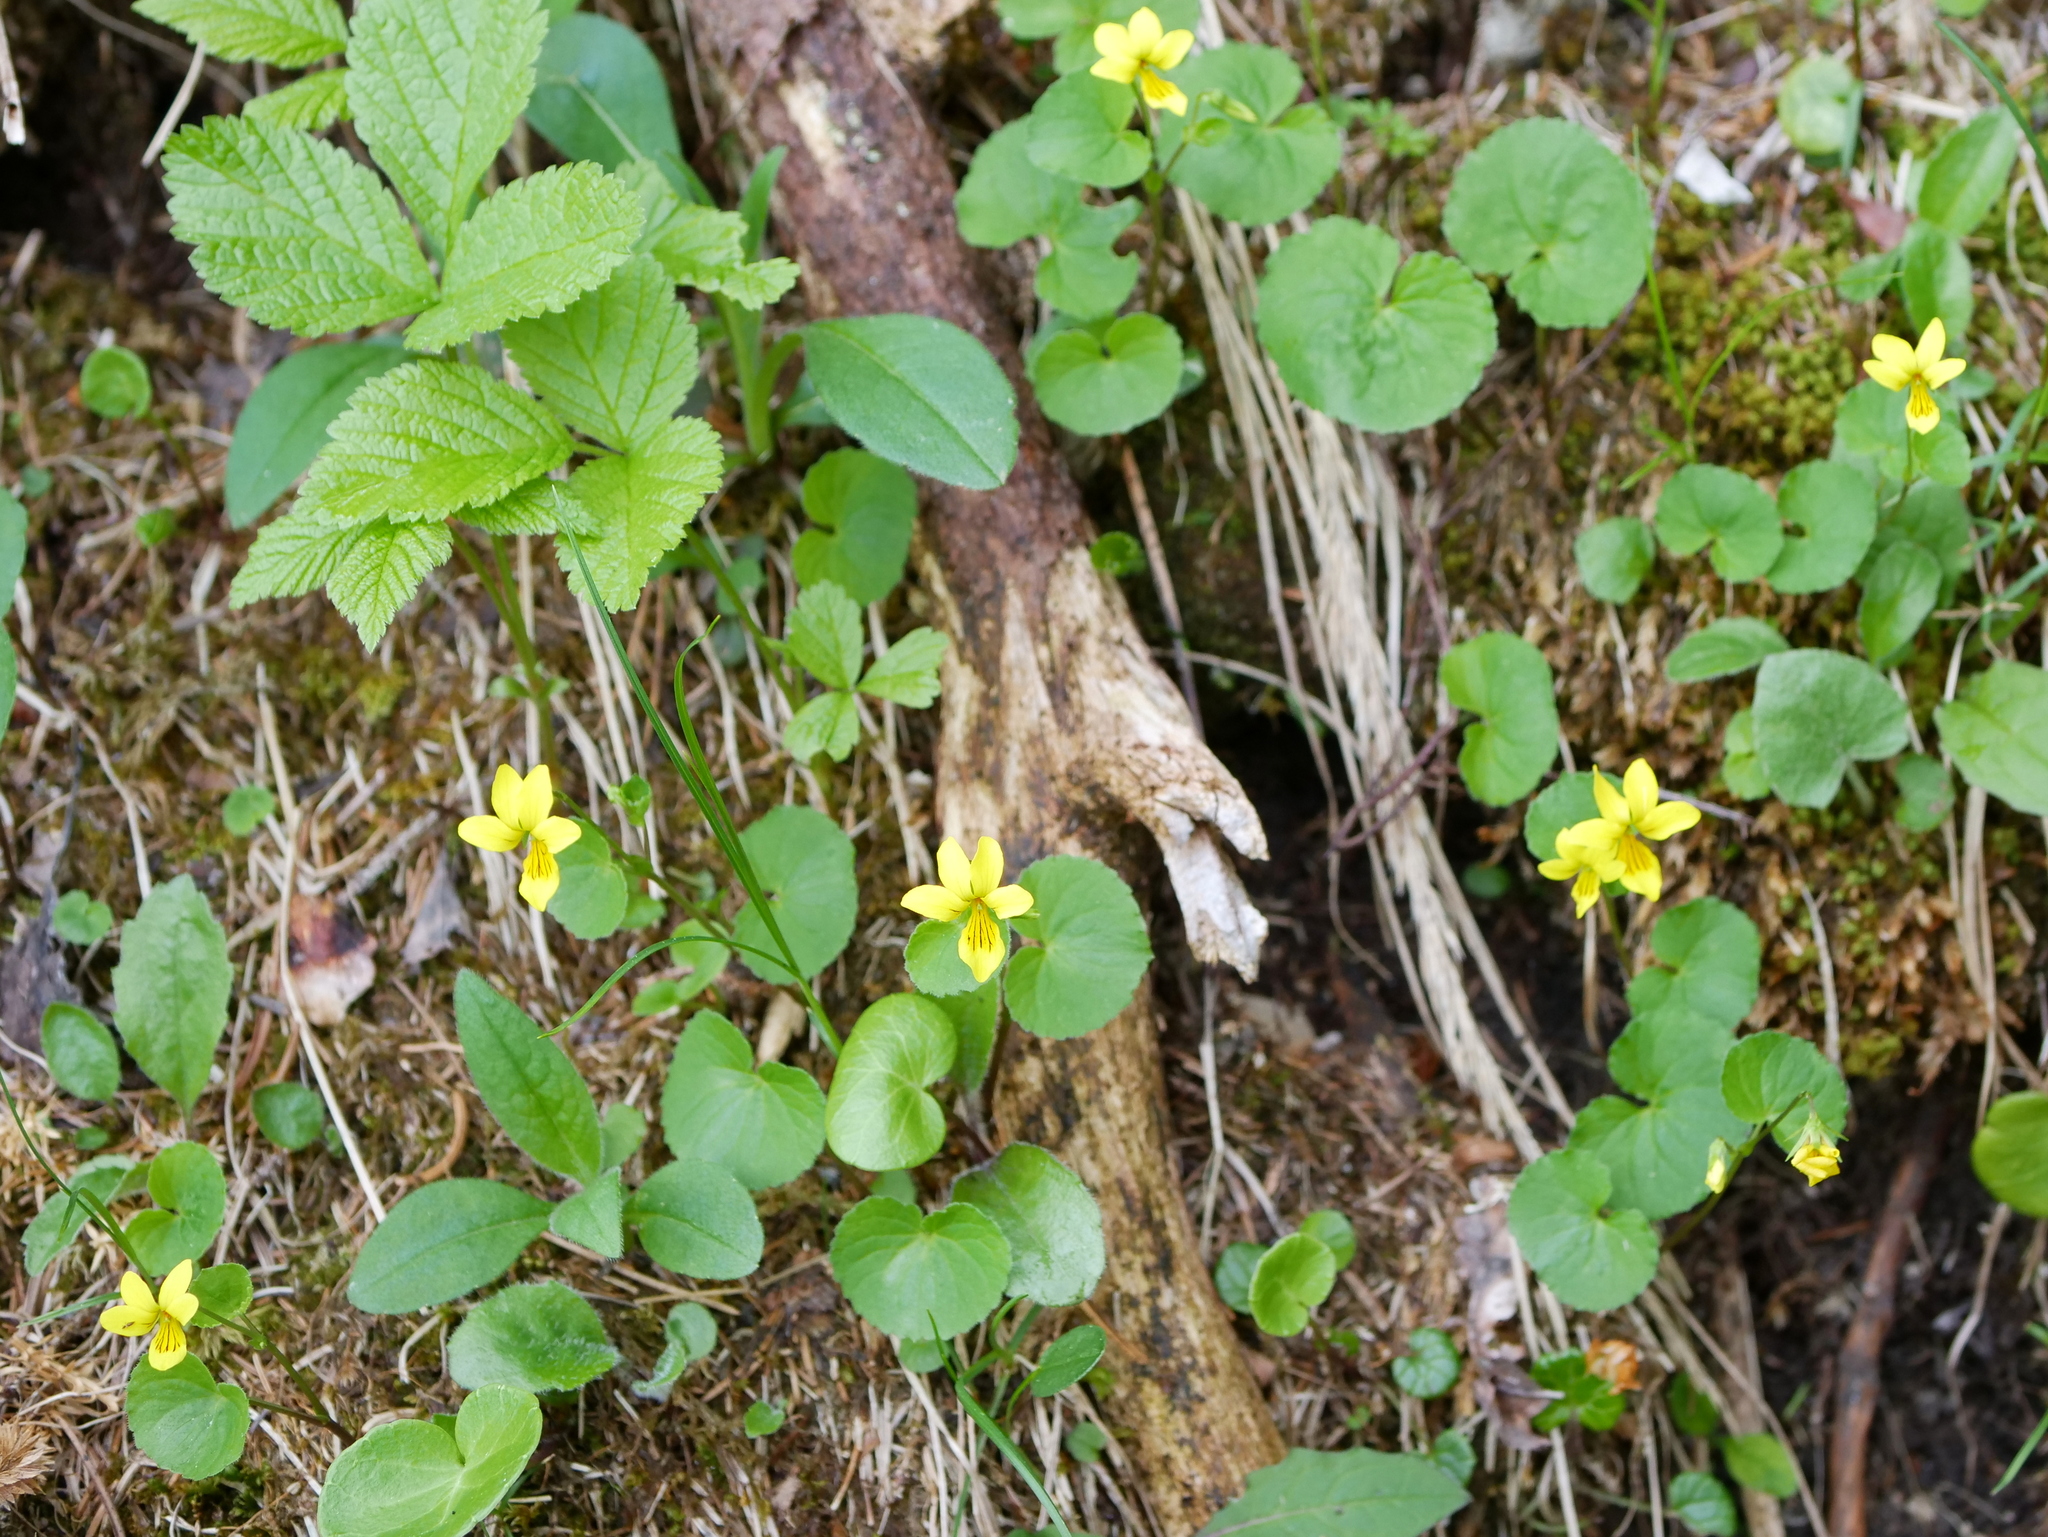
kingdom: Plantae
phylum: Tracheophyta
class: Magnoliopsida
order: Malpighiales
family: Violaceae
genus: Viola
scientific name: Viola biflora
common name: Alpine yellow violet
